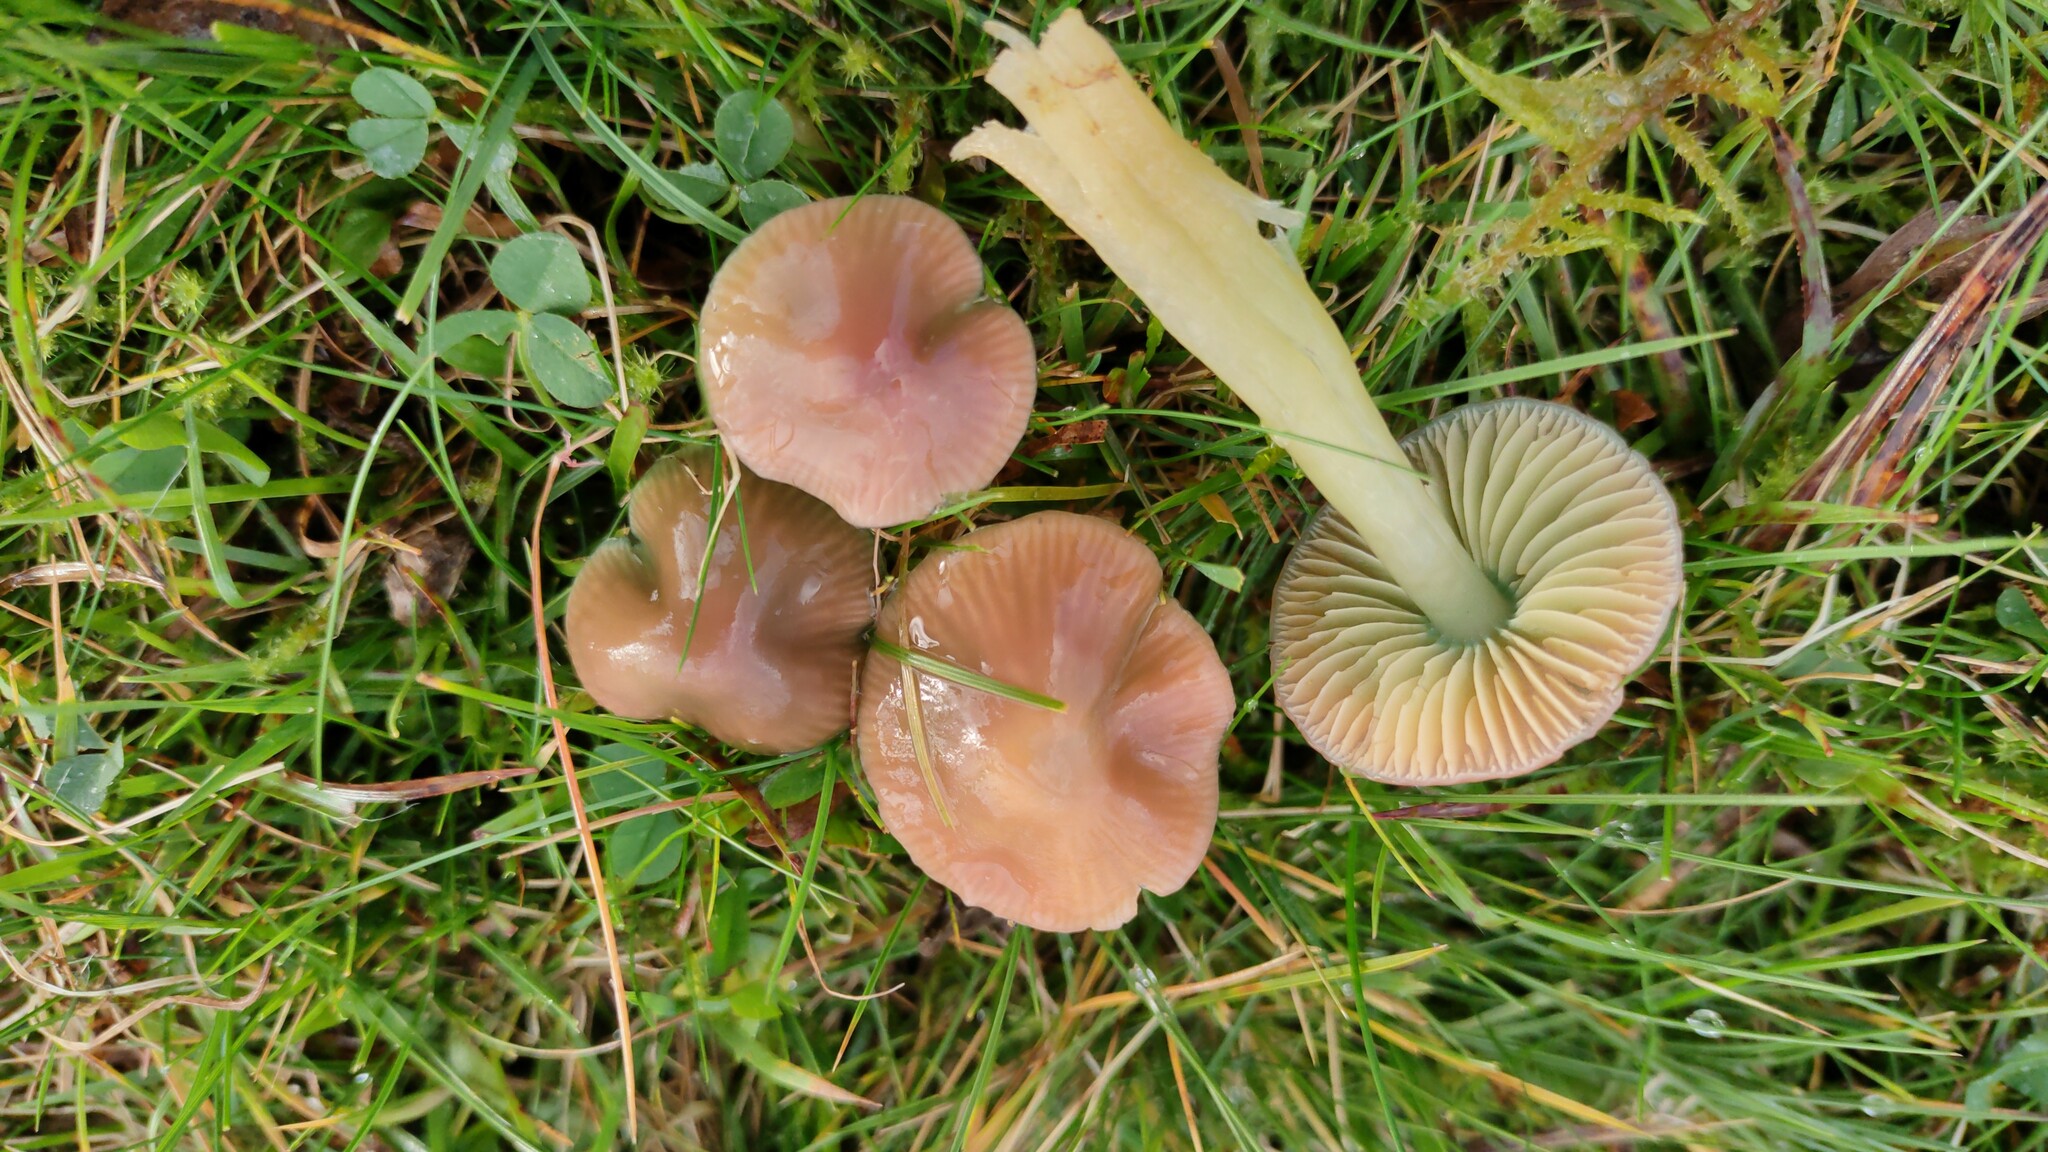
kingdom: Fungi
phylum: Basidiomycota
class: Agaricomycetes
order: Agaricales
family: Hygrophoraceae
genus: Gliophorus
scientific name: Gliophorus psittacinus
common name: Parrot wax-cap
